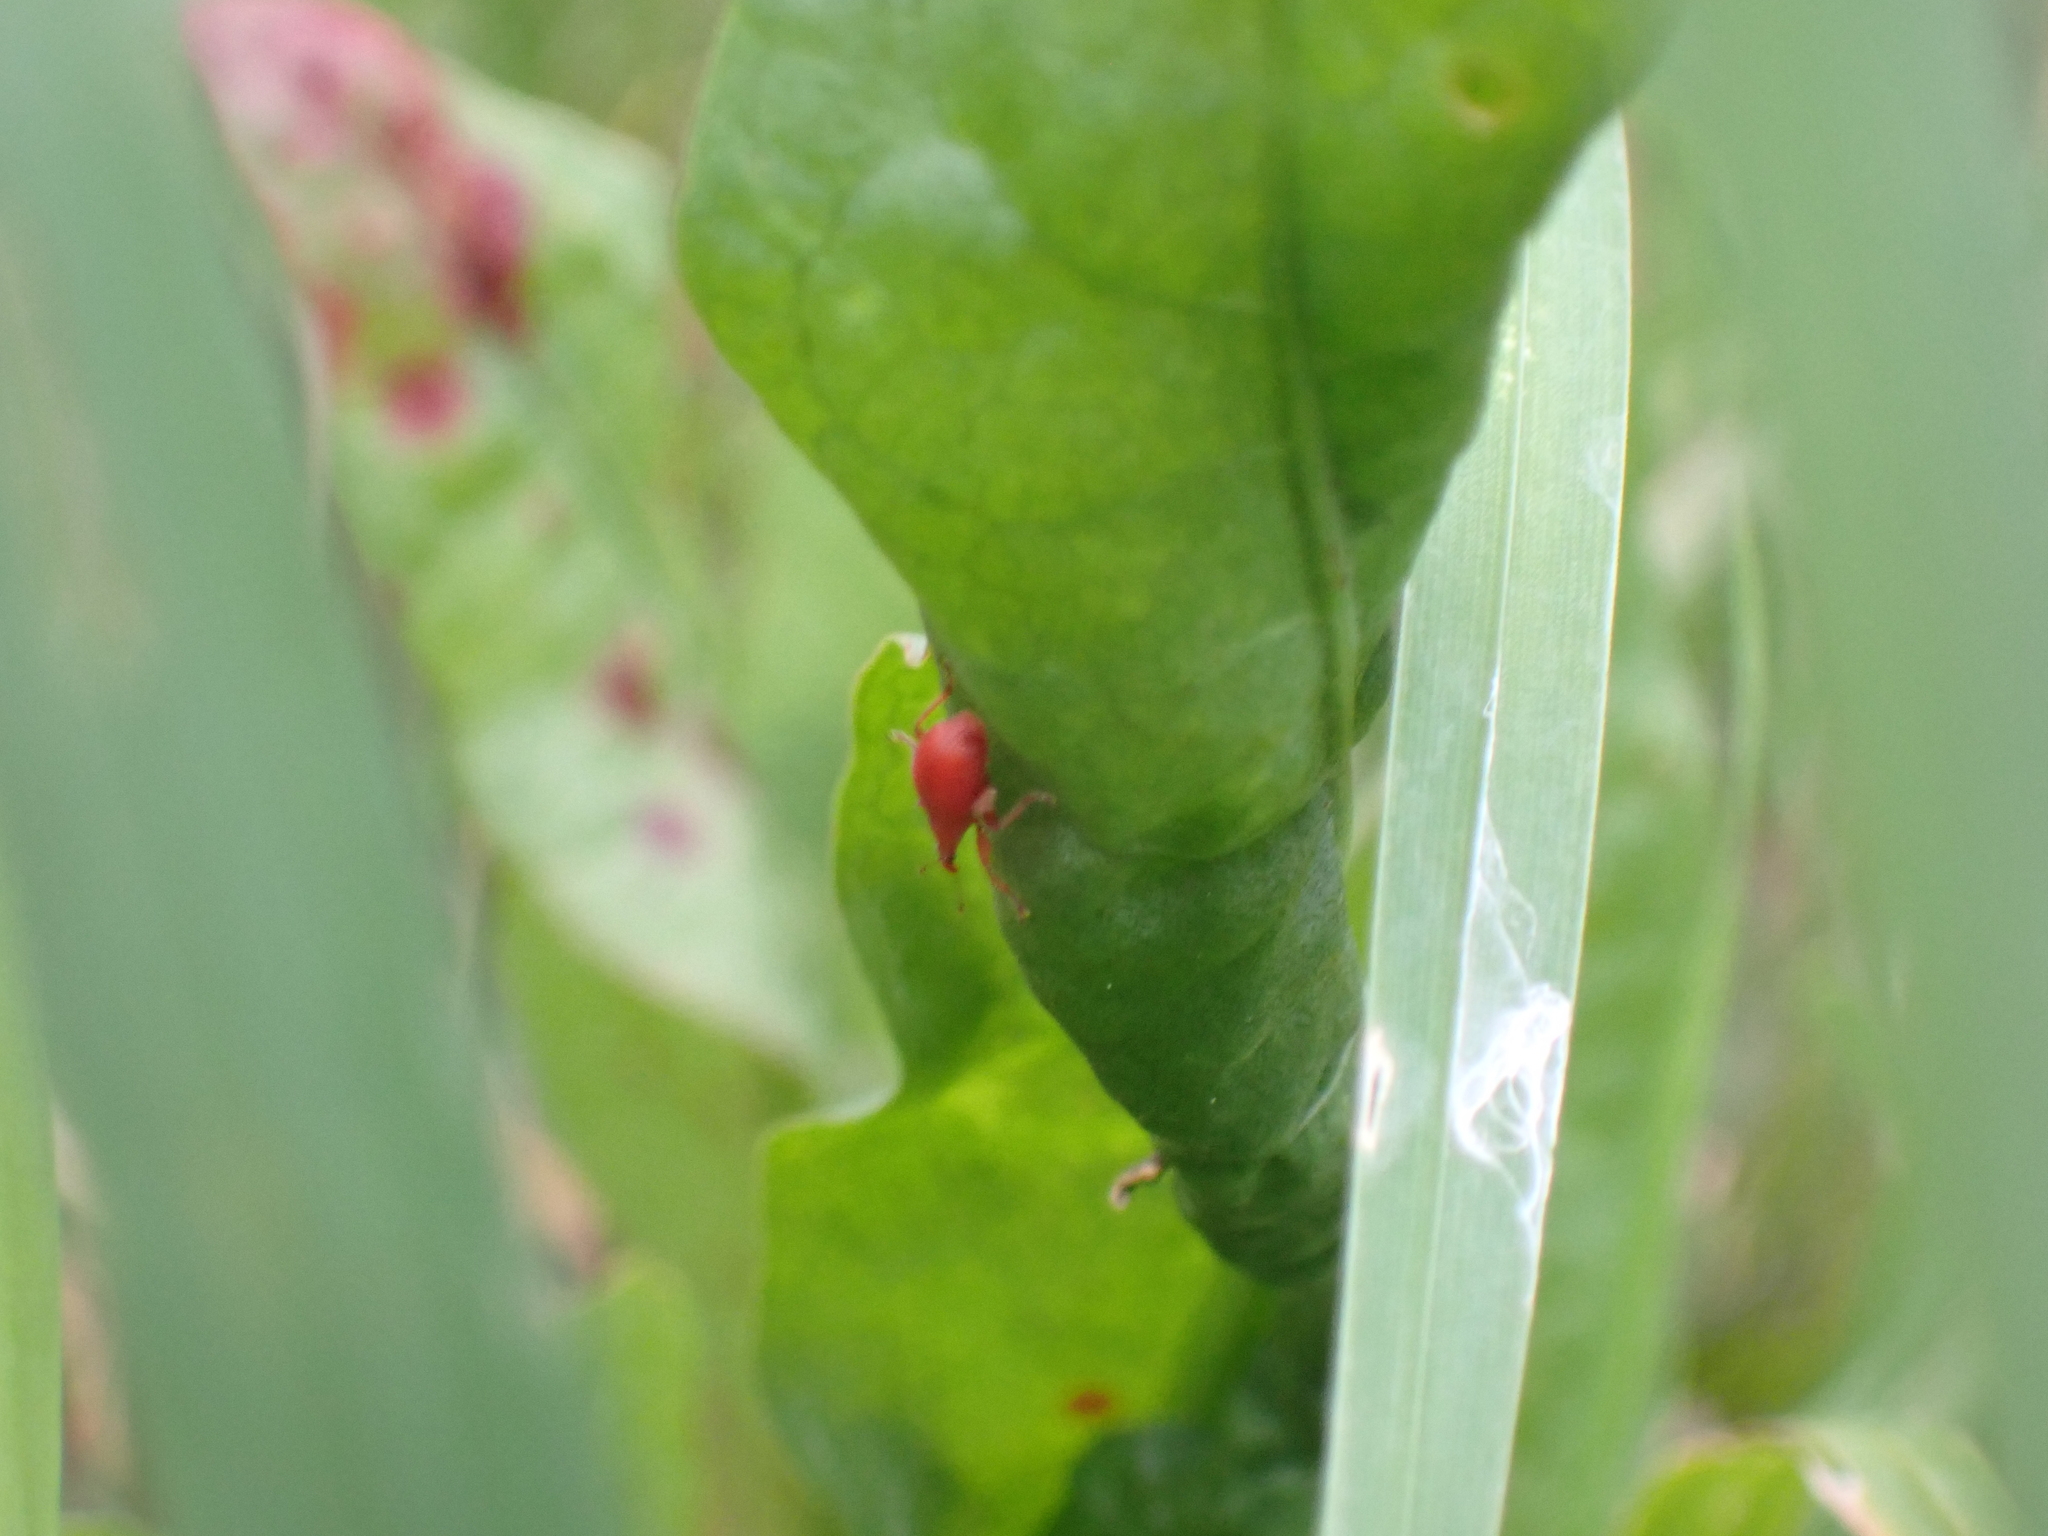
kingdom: Animalia
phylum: Arthropoda
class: Insecta
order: Coleoptera
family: Apionidae
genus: Apion
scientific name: Apion frumentarium
